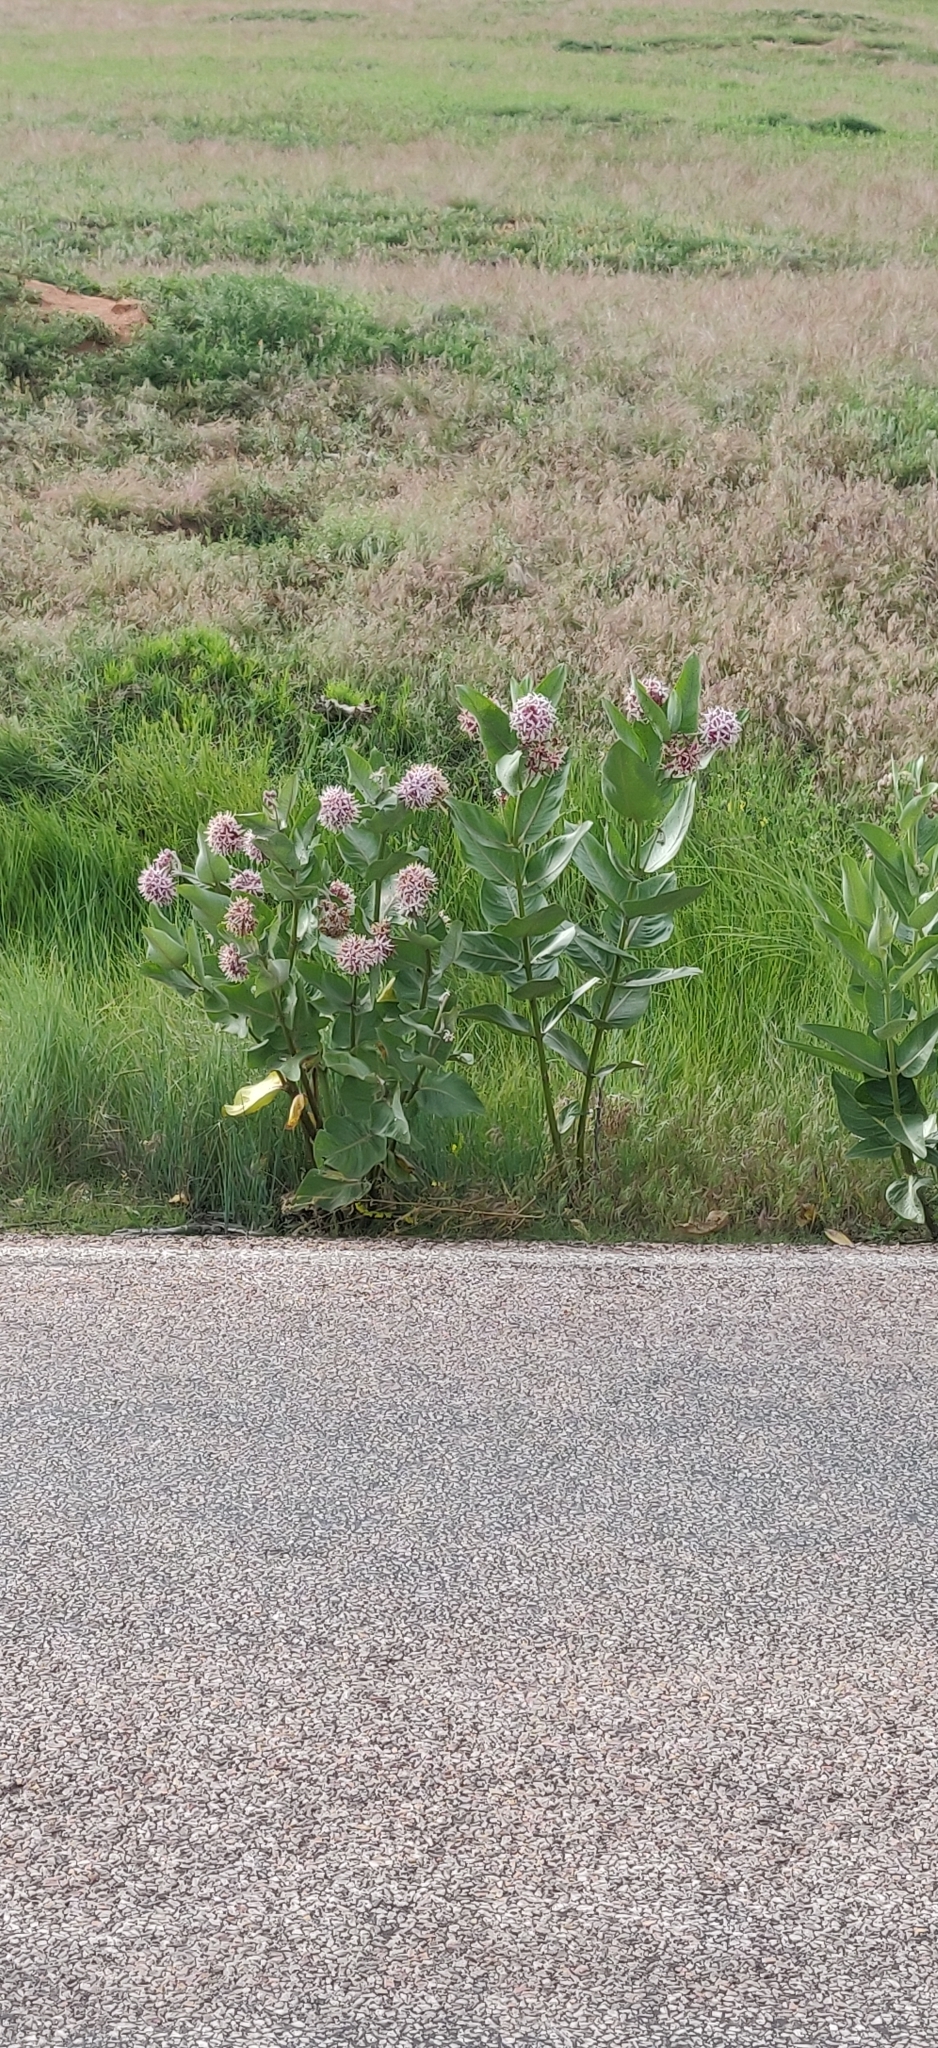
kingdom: Plantae
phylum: Tracheophyta
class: Magnoliopsida
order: Gentianales
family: Apocynaceae
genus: Asclepias
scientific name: Asclepias speciosa
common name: Showy milkweed
